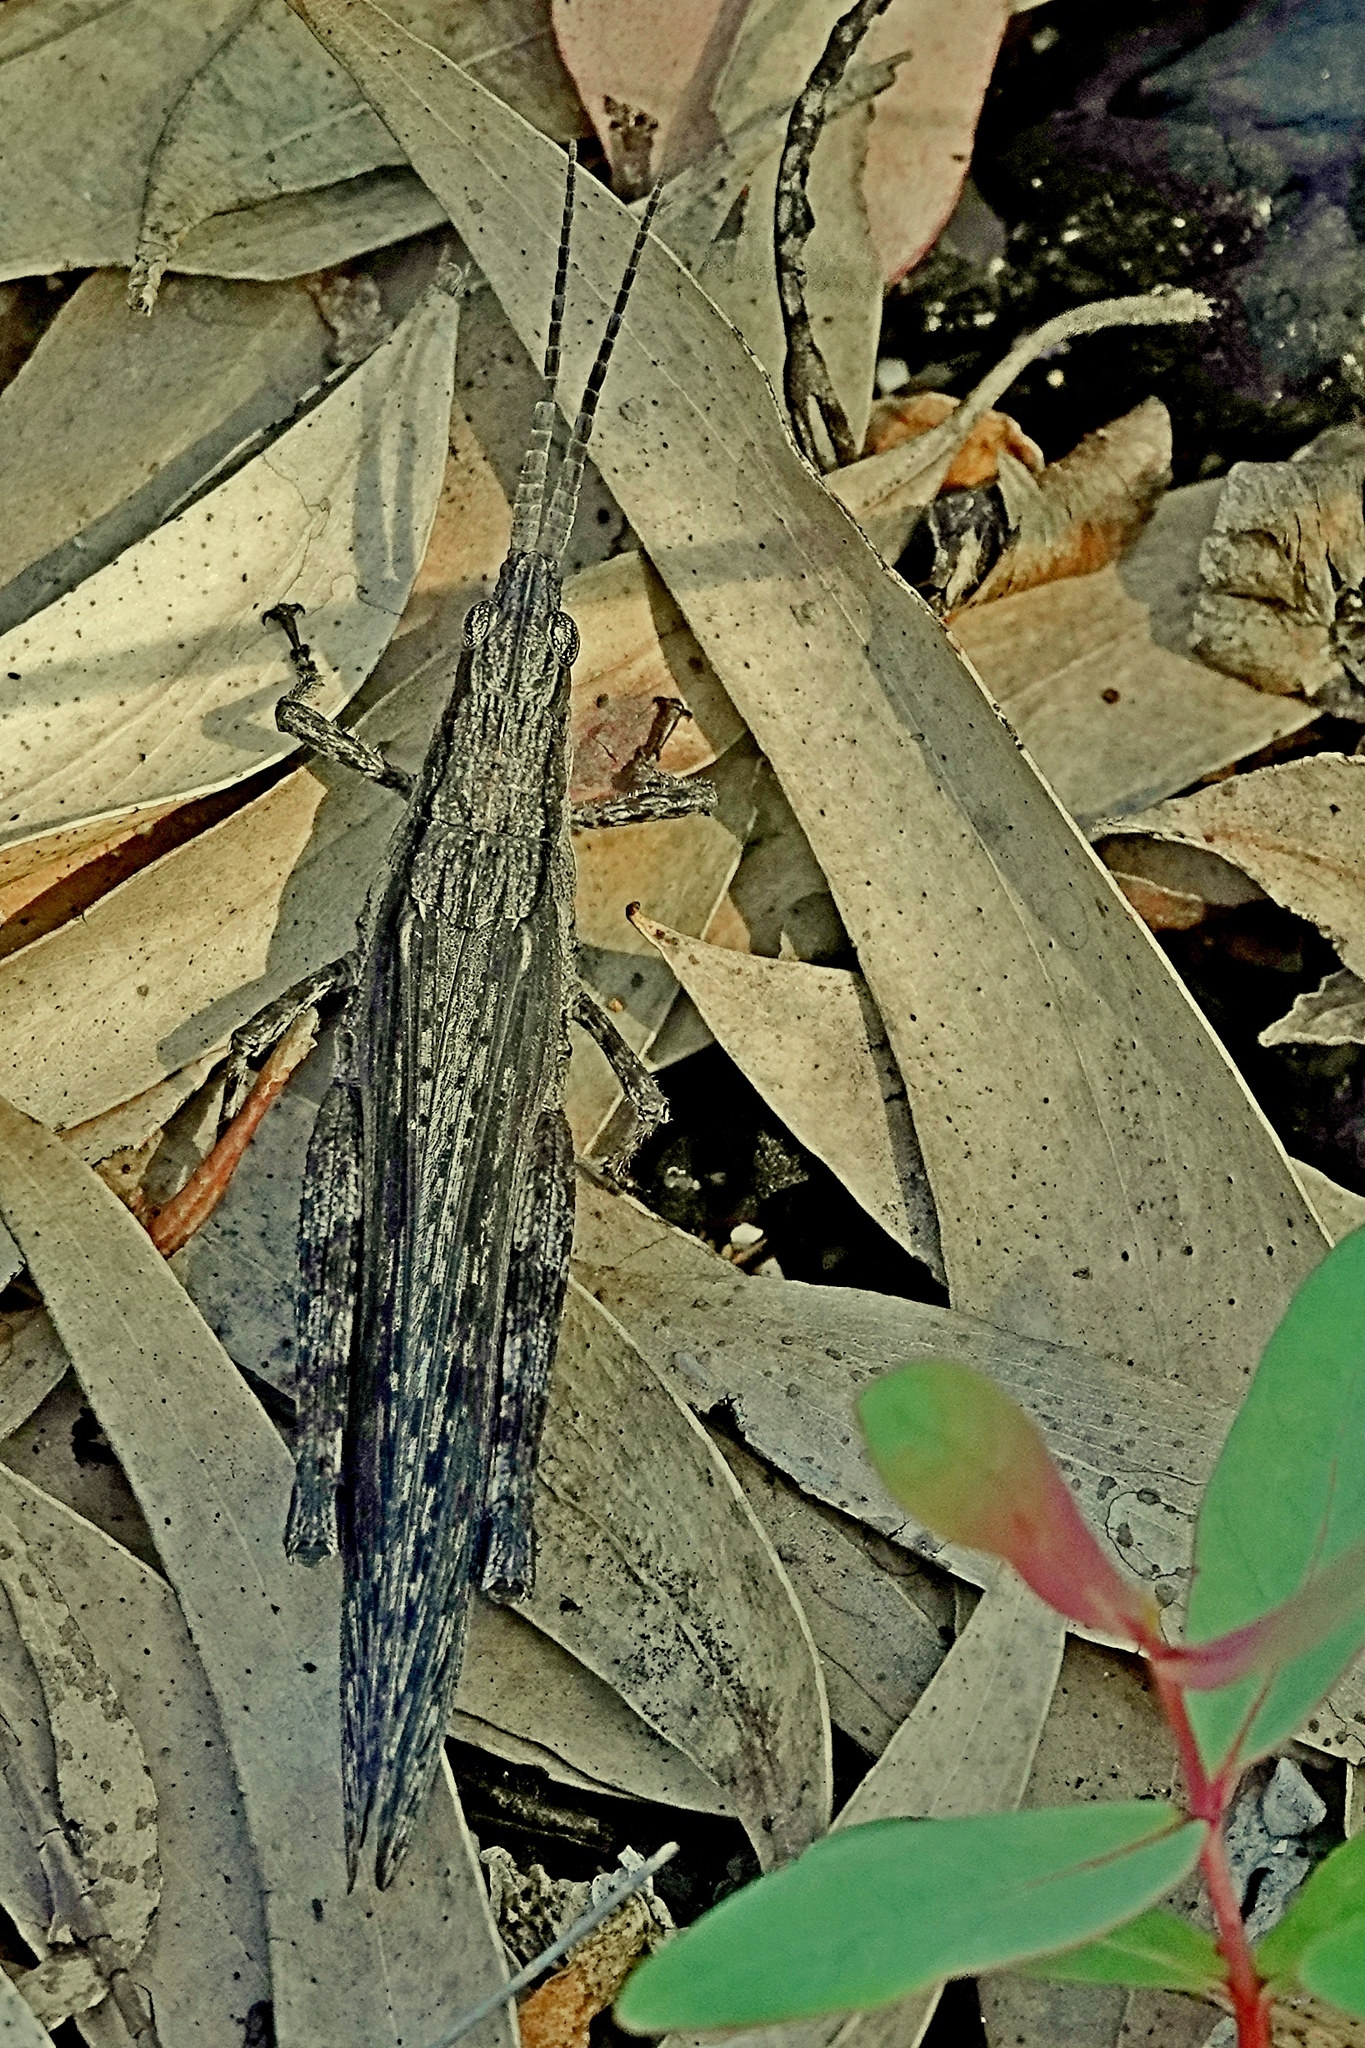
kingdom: Animalia
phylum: Arthropoda
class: Insecta
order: Orthoptera
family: Acrididae
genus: Coryphistes
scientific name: Coryphistes ruricola
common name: Bark-mimicking grasshopper
